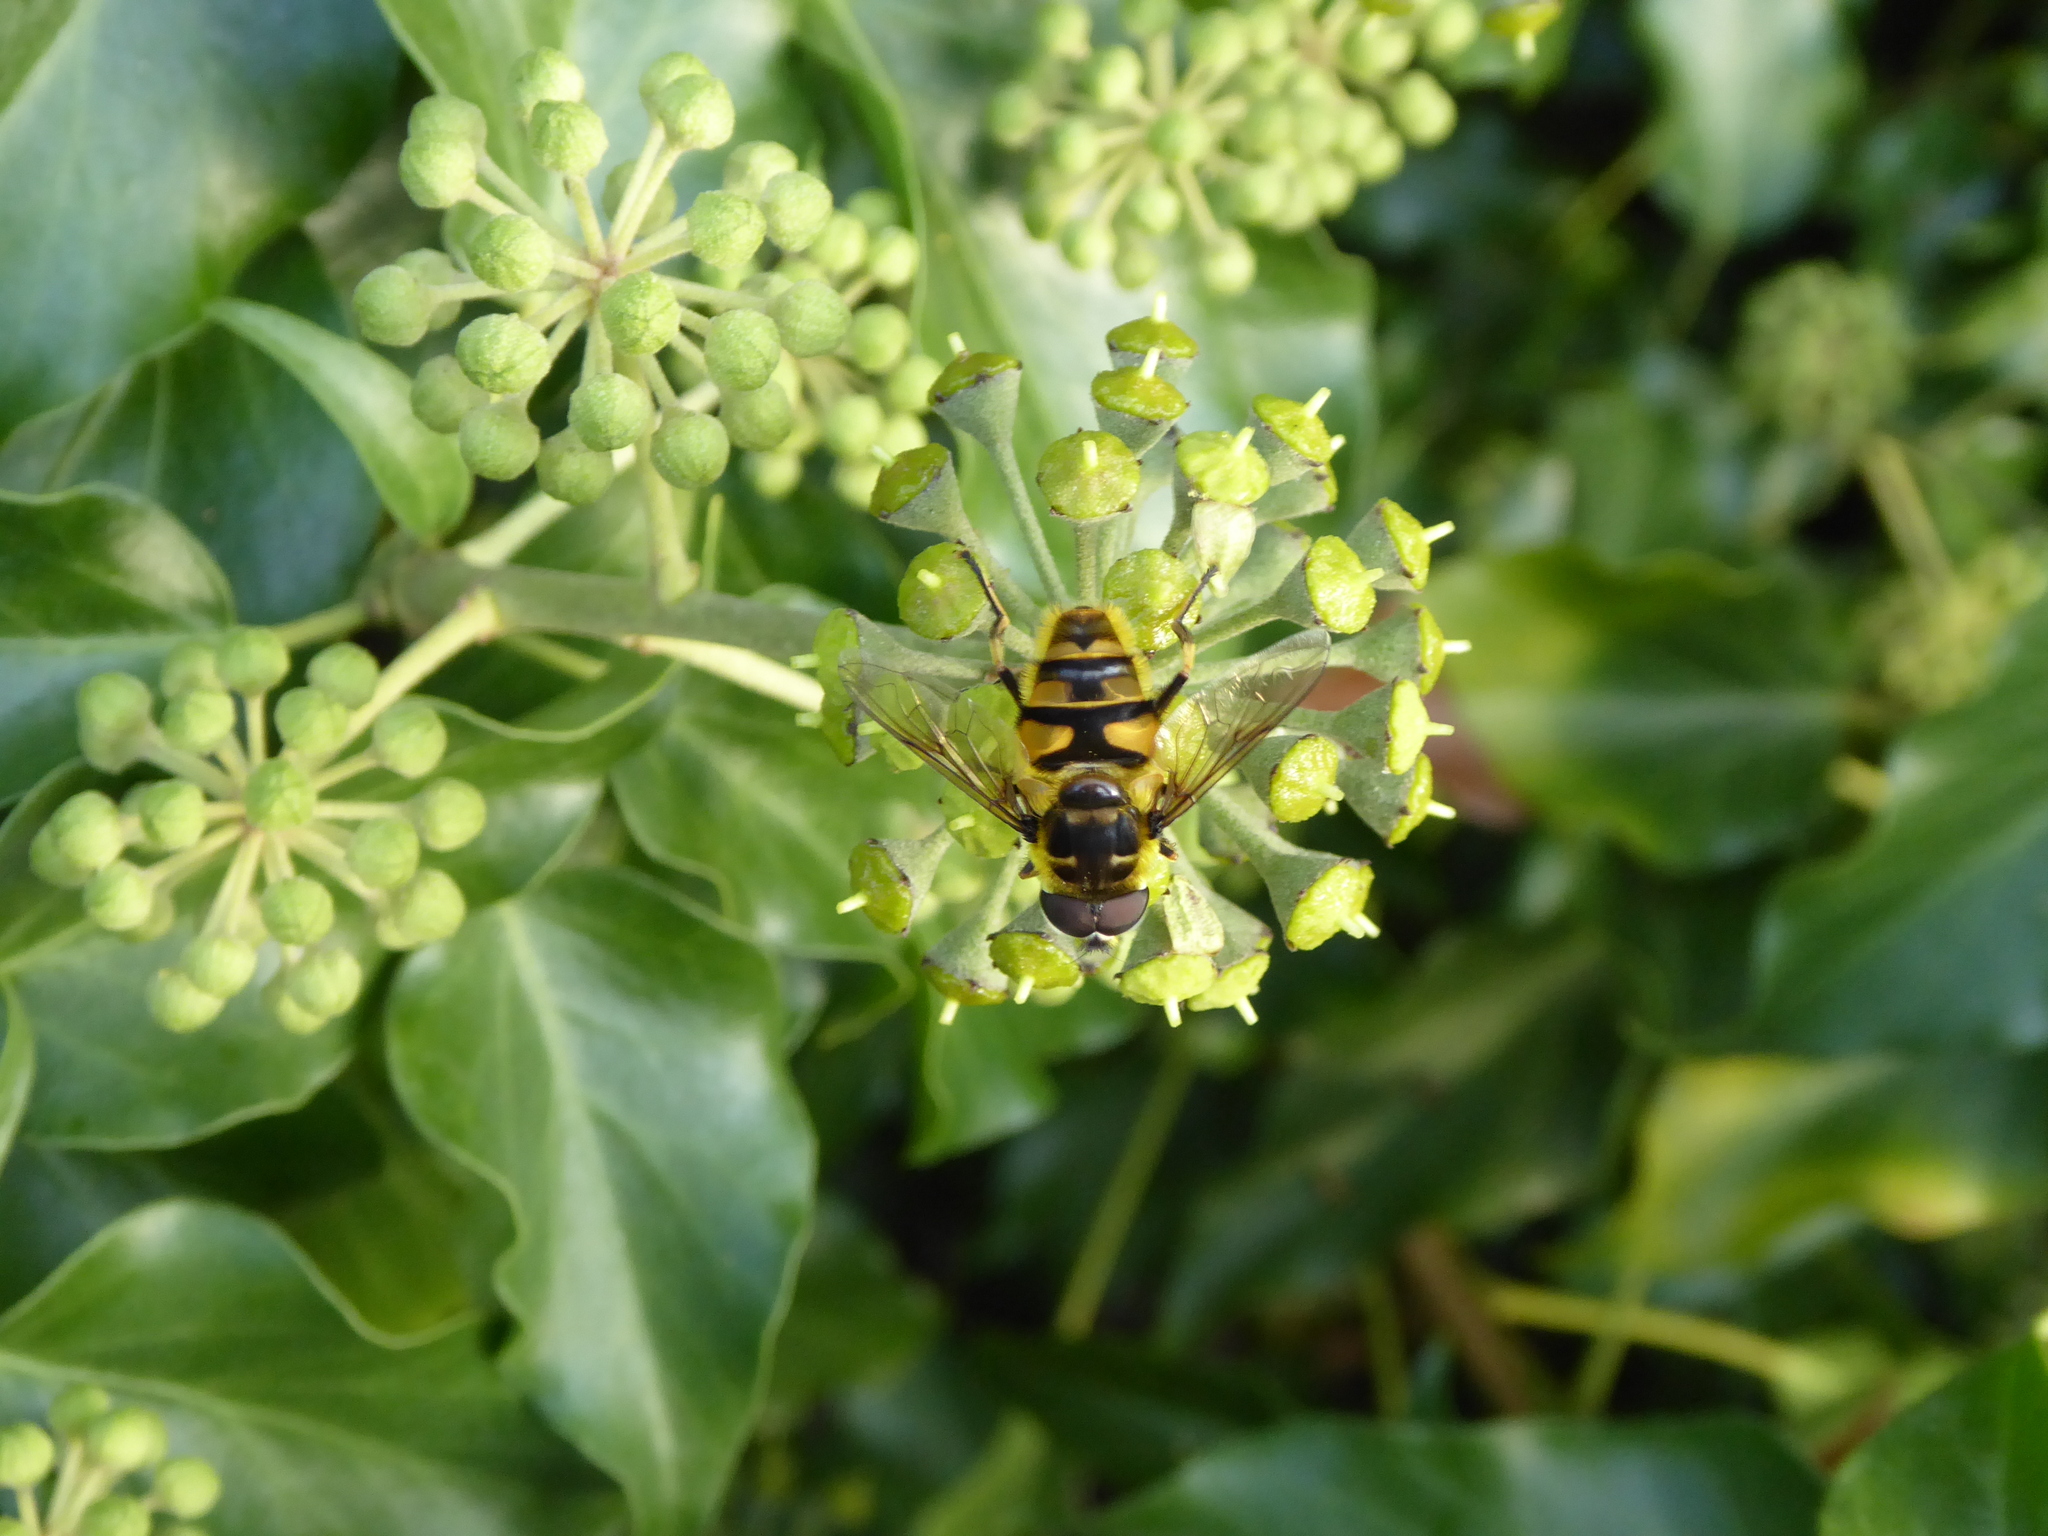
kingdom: Animalia
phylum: Arthropoda
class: Insecta
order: Diptera
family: Syrphidae
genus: Myathropa
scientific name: Myathropa florea
